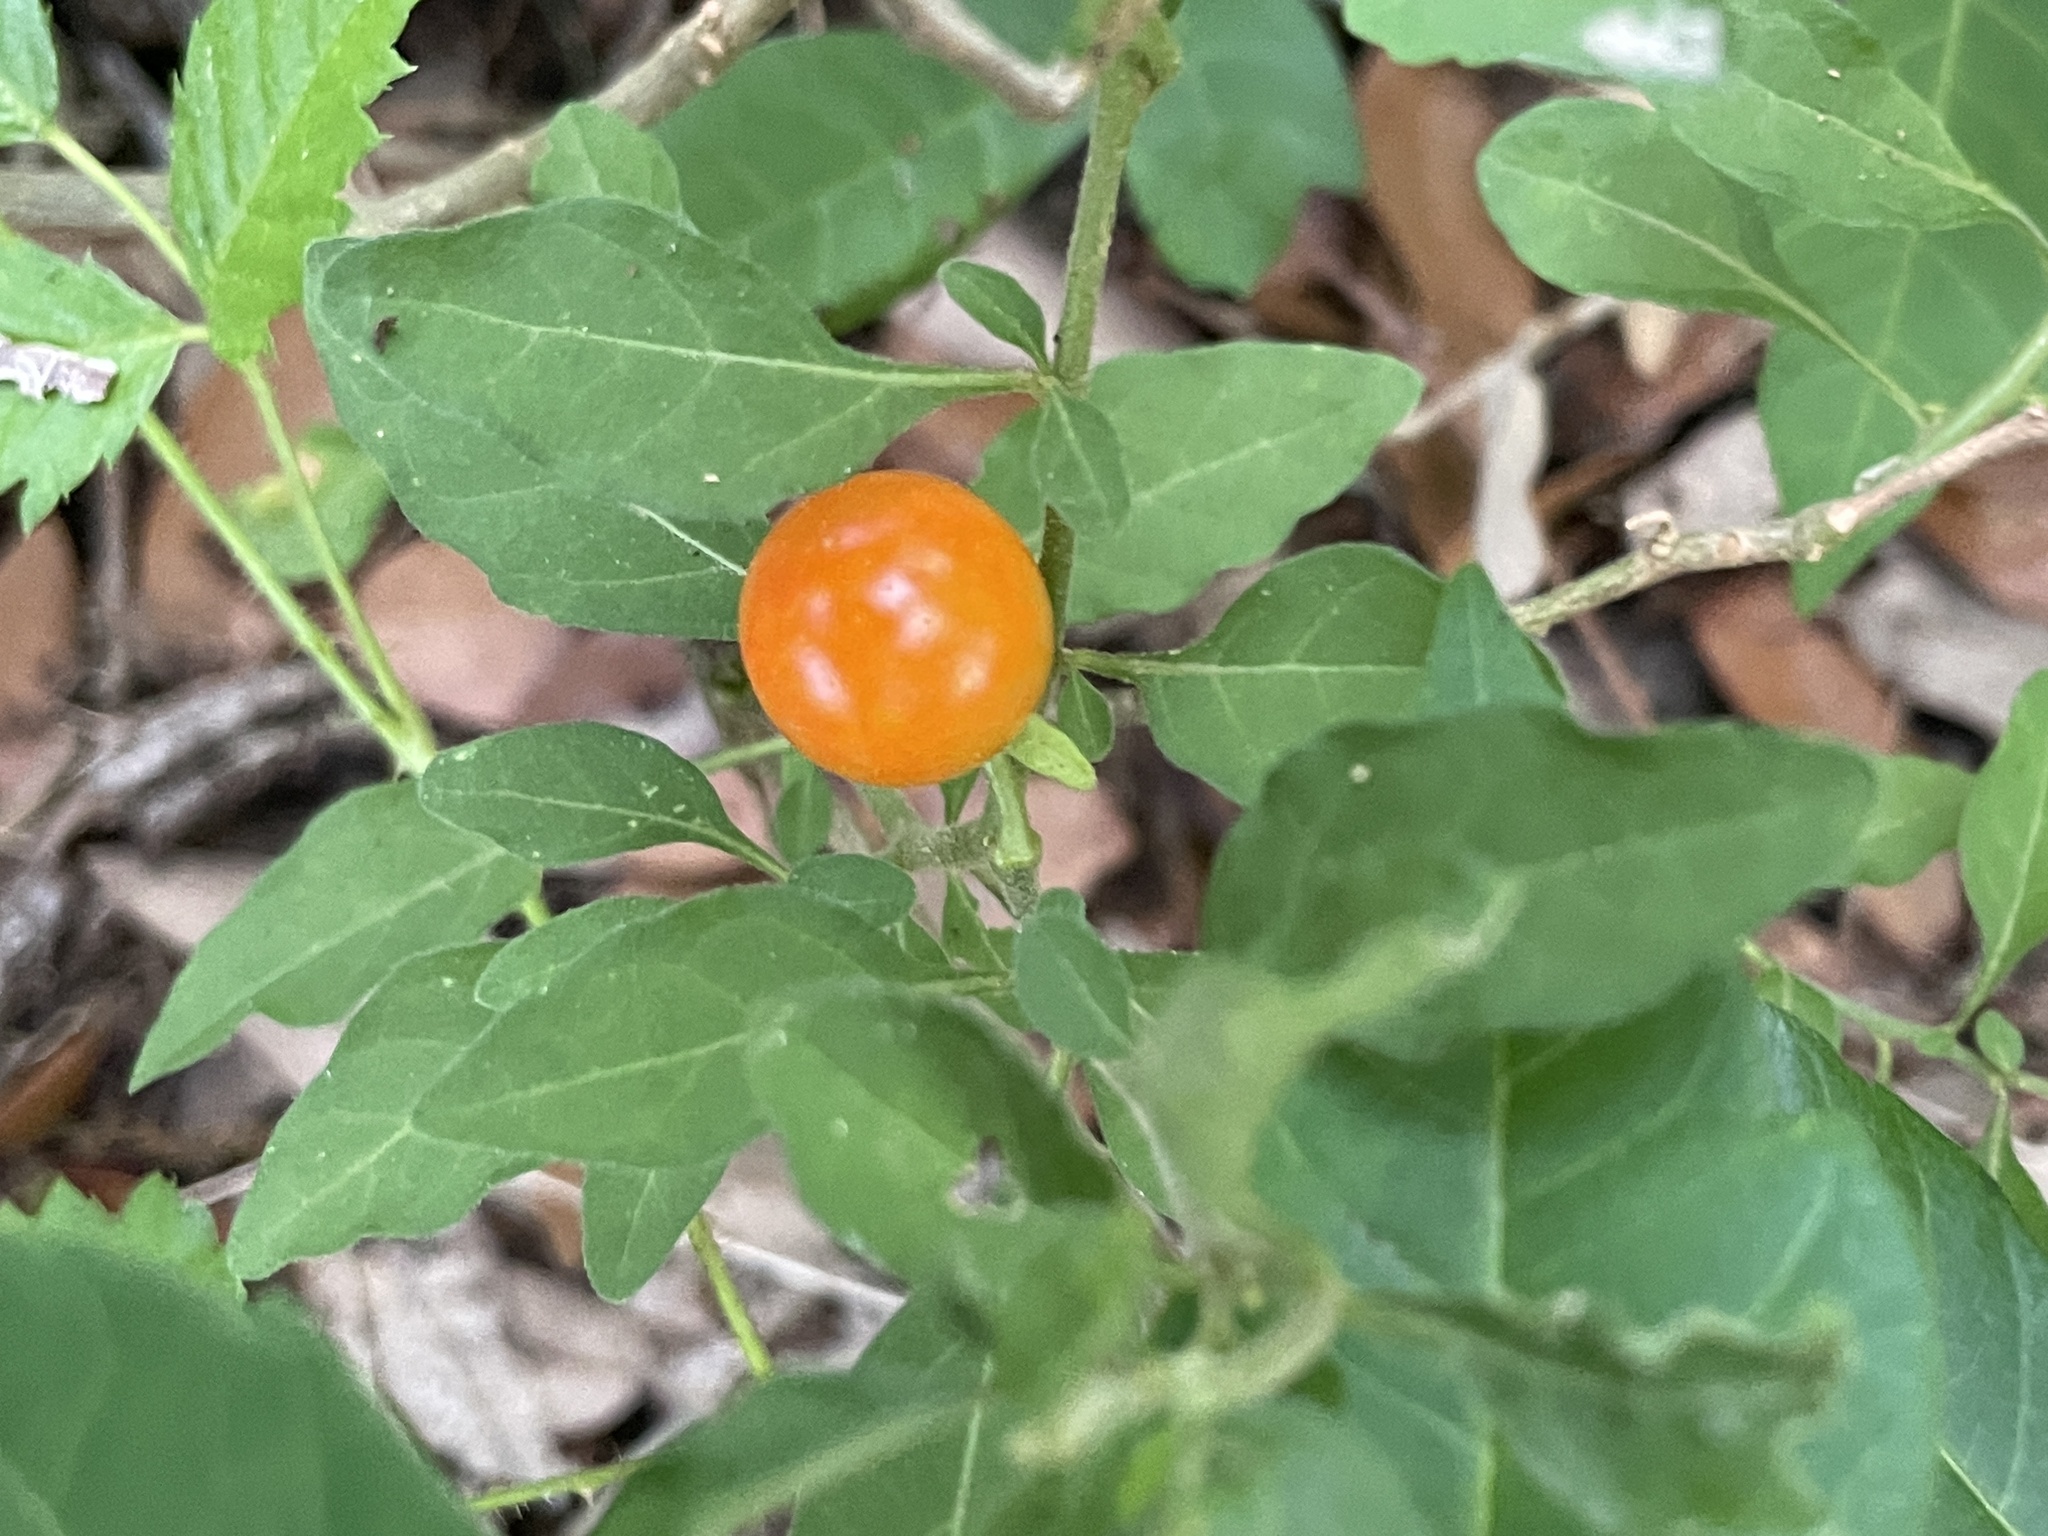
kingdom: Plantae
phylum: Tracheophyta
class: Magnoliopsida
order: Solanales
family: Solanaceae
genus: Solanum
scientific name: Solanum pseudocapsicum
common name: Jerusalem cherry
